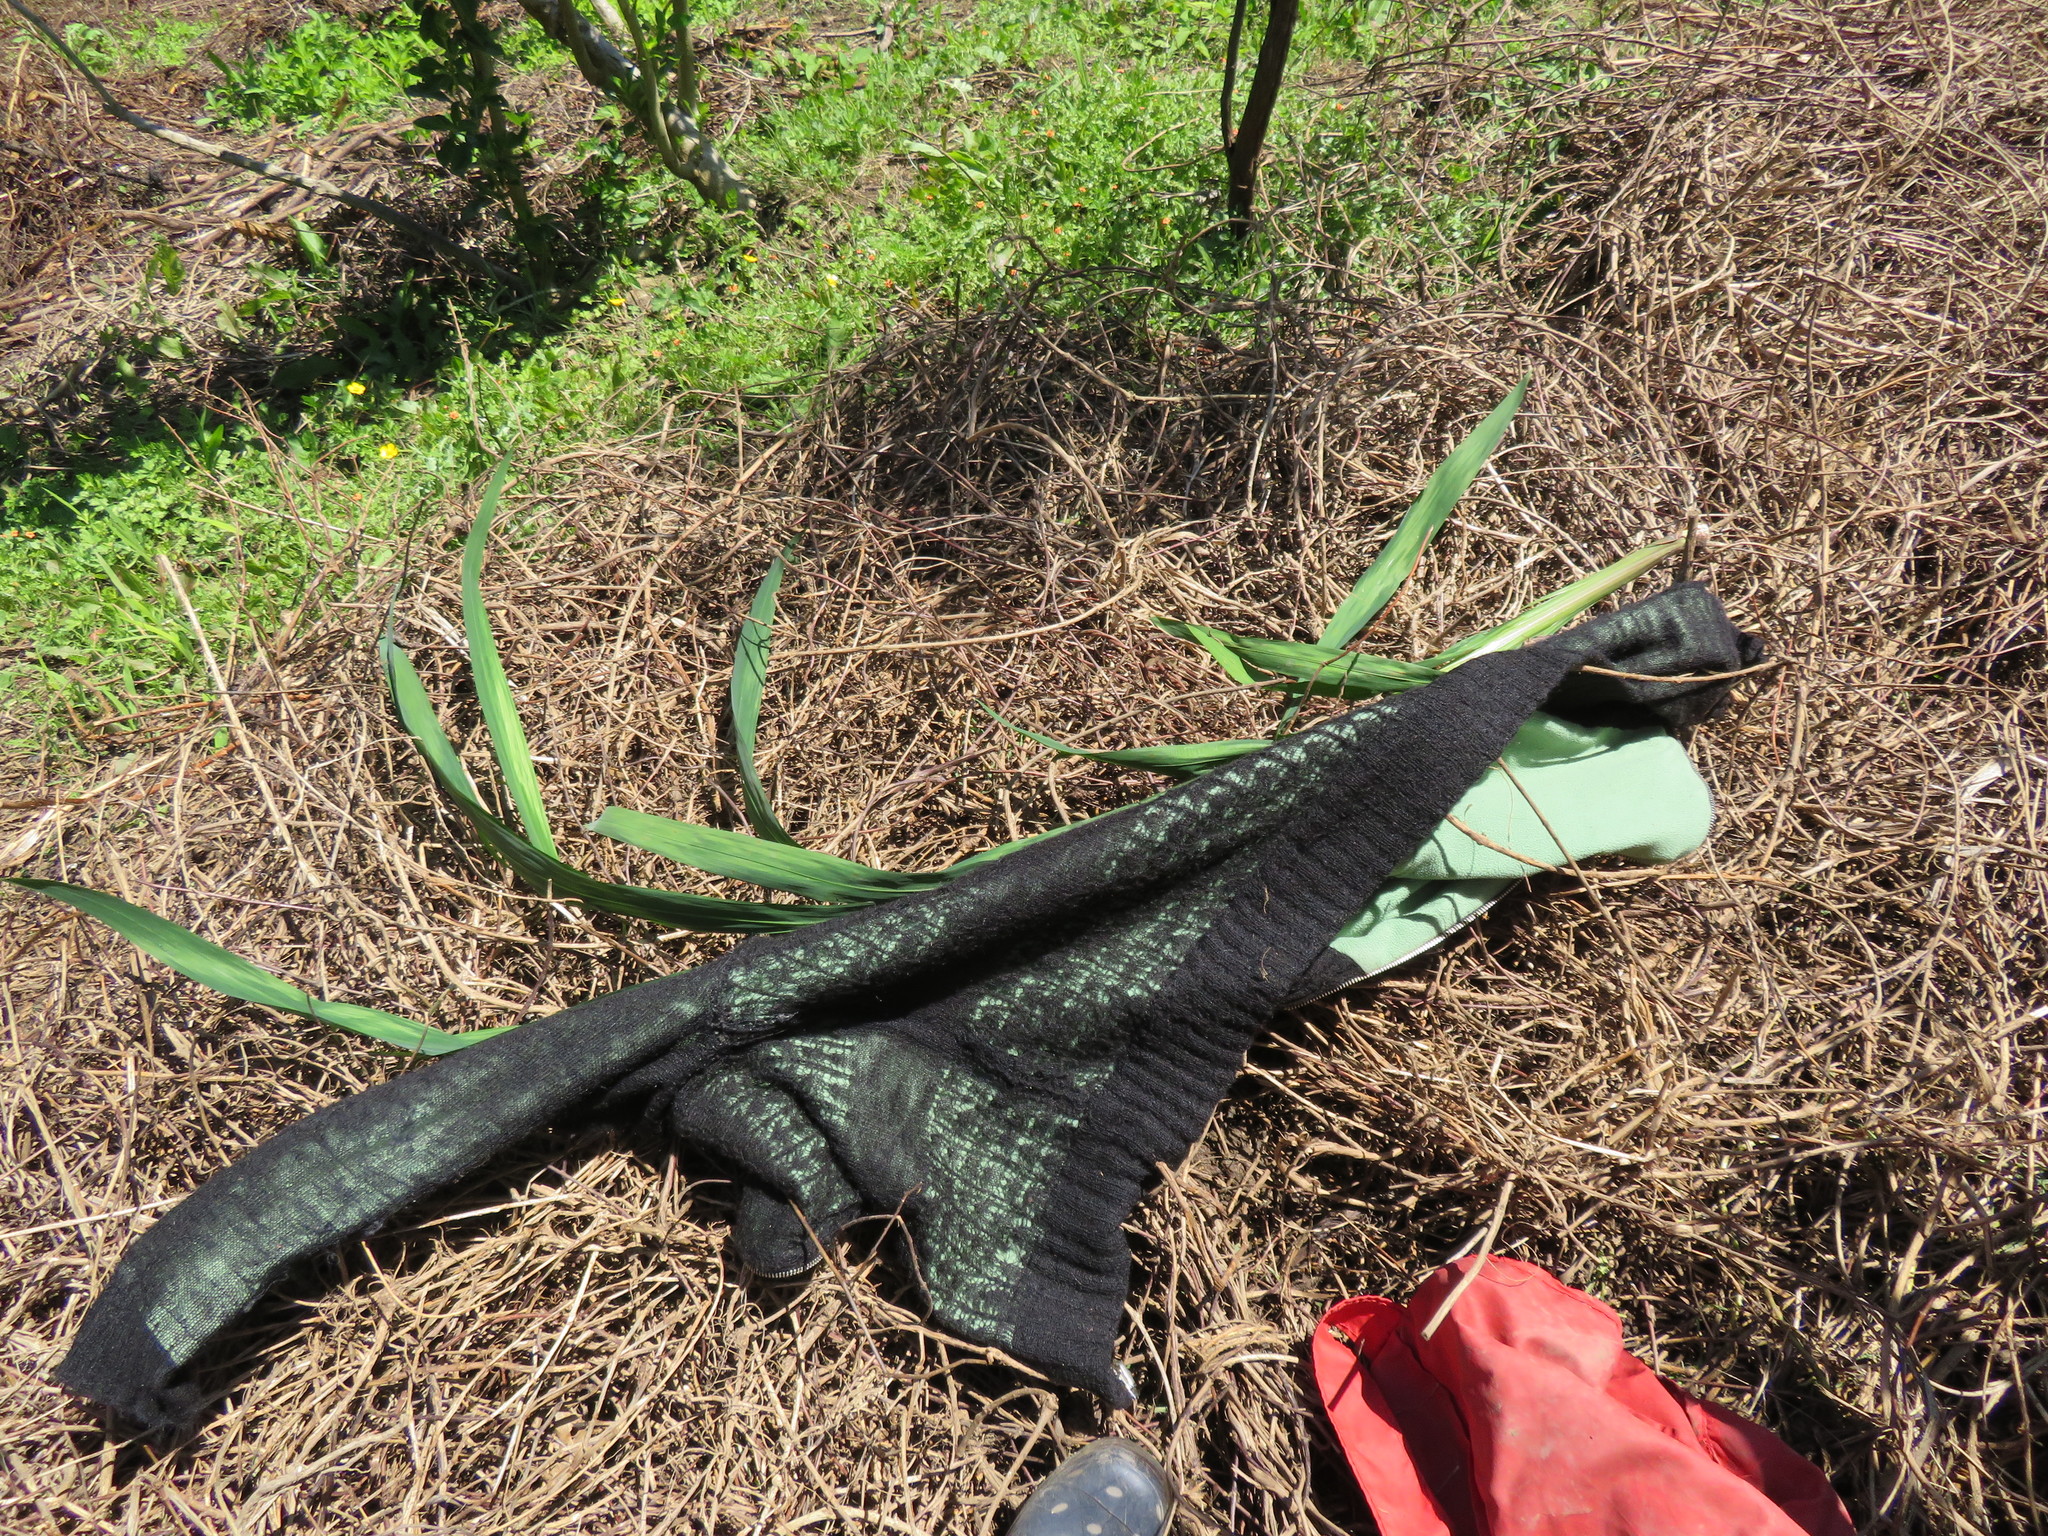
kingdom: Plantae
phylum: Tracheophyta
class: Liliopsida
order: Asparagales
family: Iridaceae
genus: Crocosmia
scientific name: Crocosmia crocosmiiflora
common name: Montbretia
